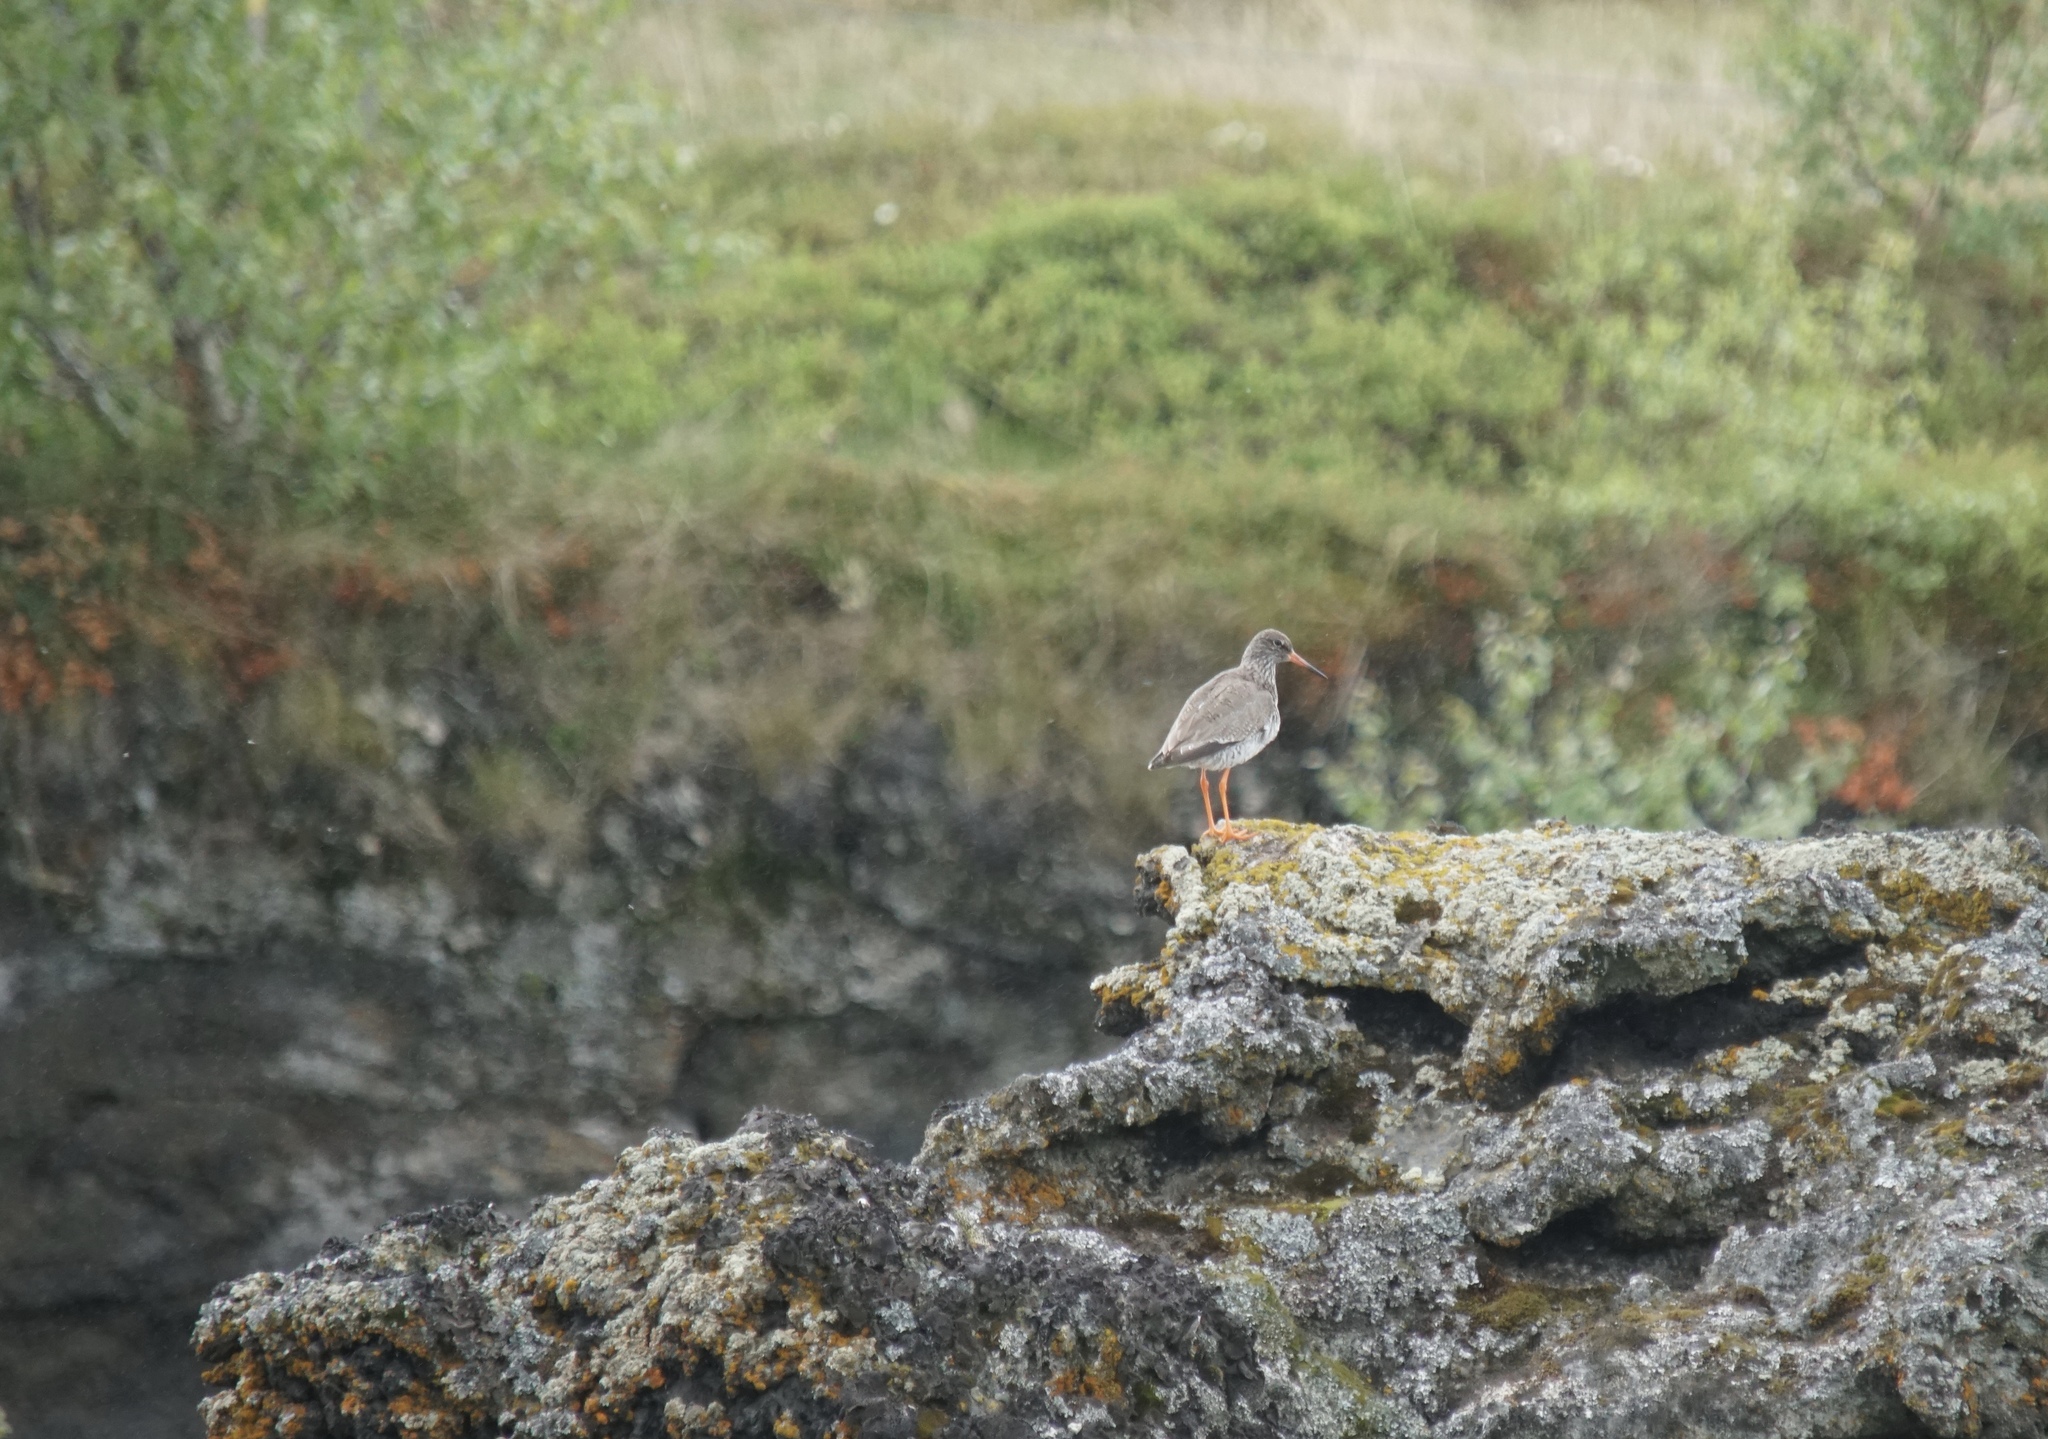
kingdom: Animalia
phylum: Chordata
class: Aves
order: Charadriiformes
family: Scolopacidae
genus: Tringa
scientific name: Tringa totanus
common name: Common redshank
